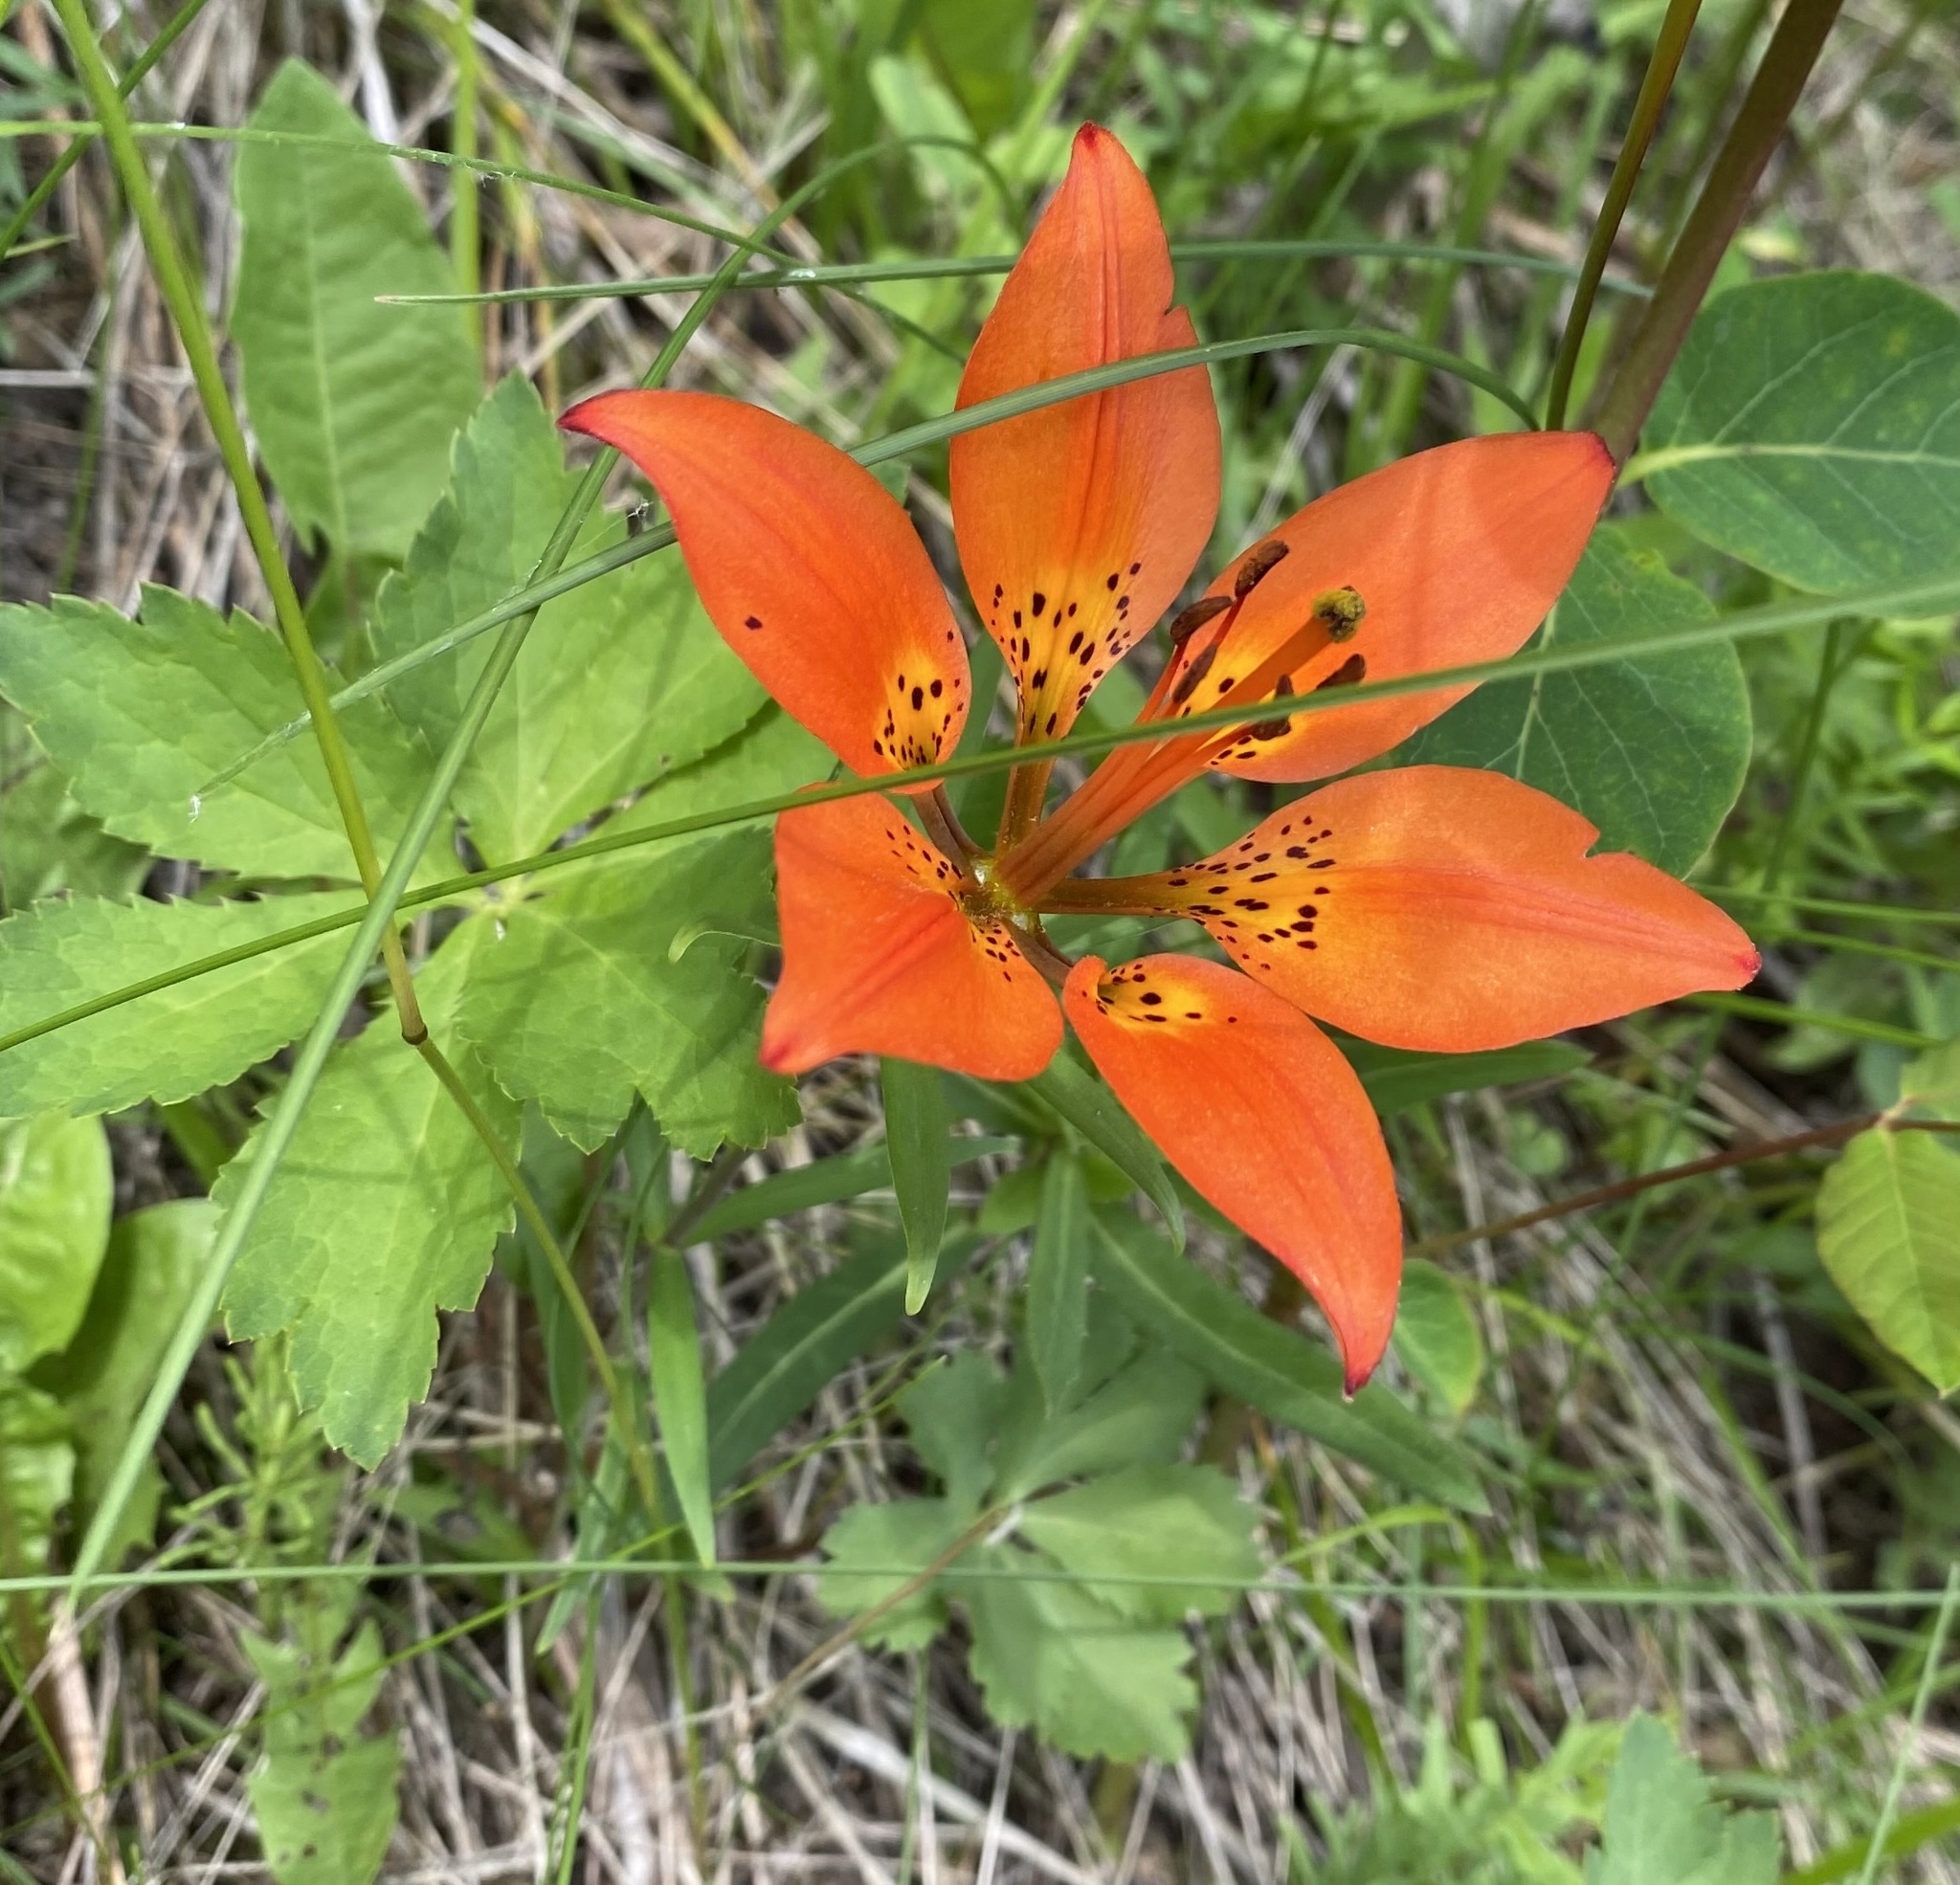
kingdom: Plantae
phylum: Tracheophyta
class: Liliopsida
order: Liliales
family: Liliaceae
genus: Lilium
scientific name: Lilium philadelphicum
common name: Red lily
